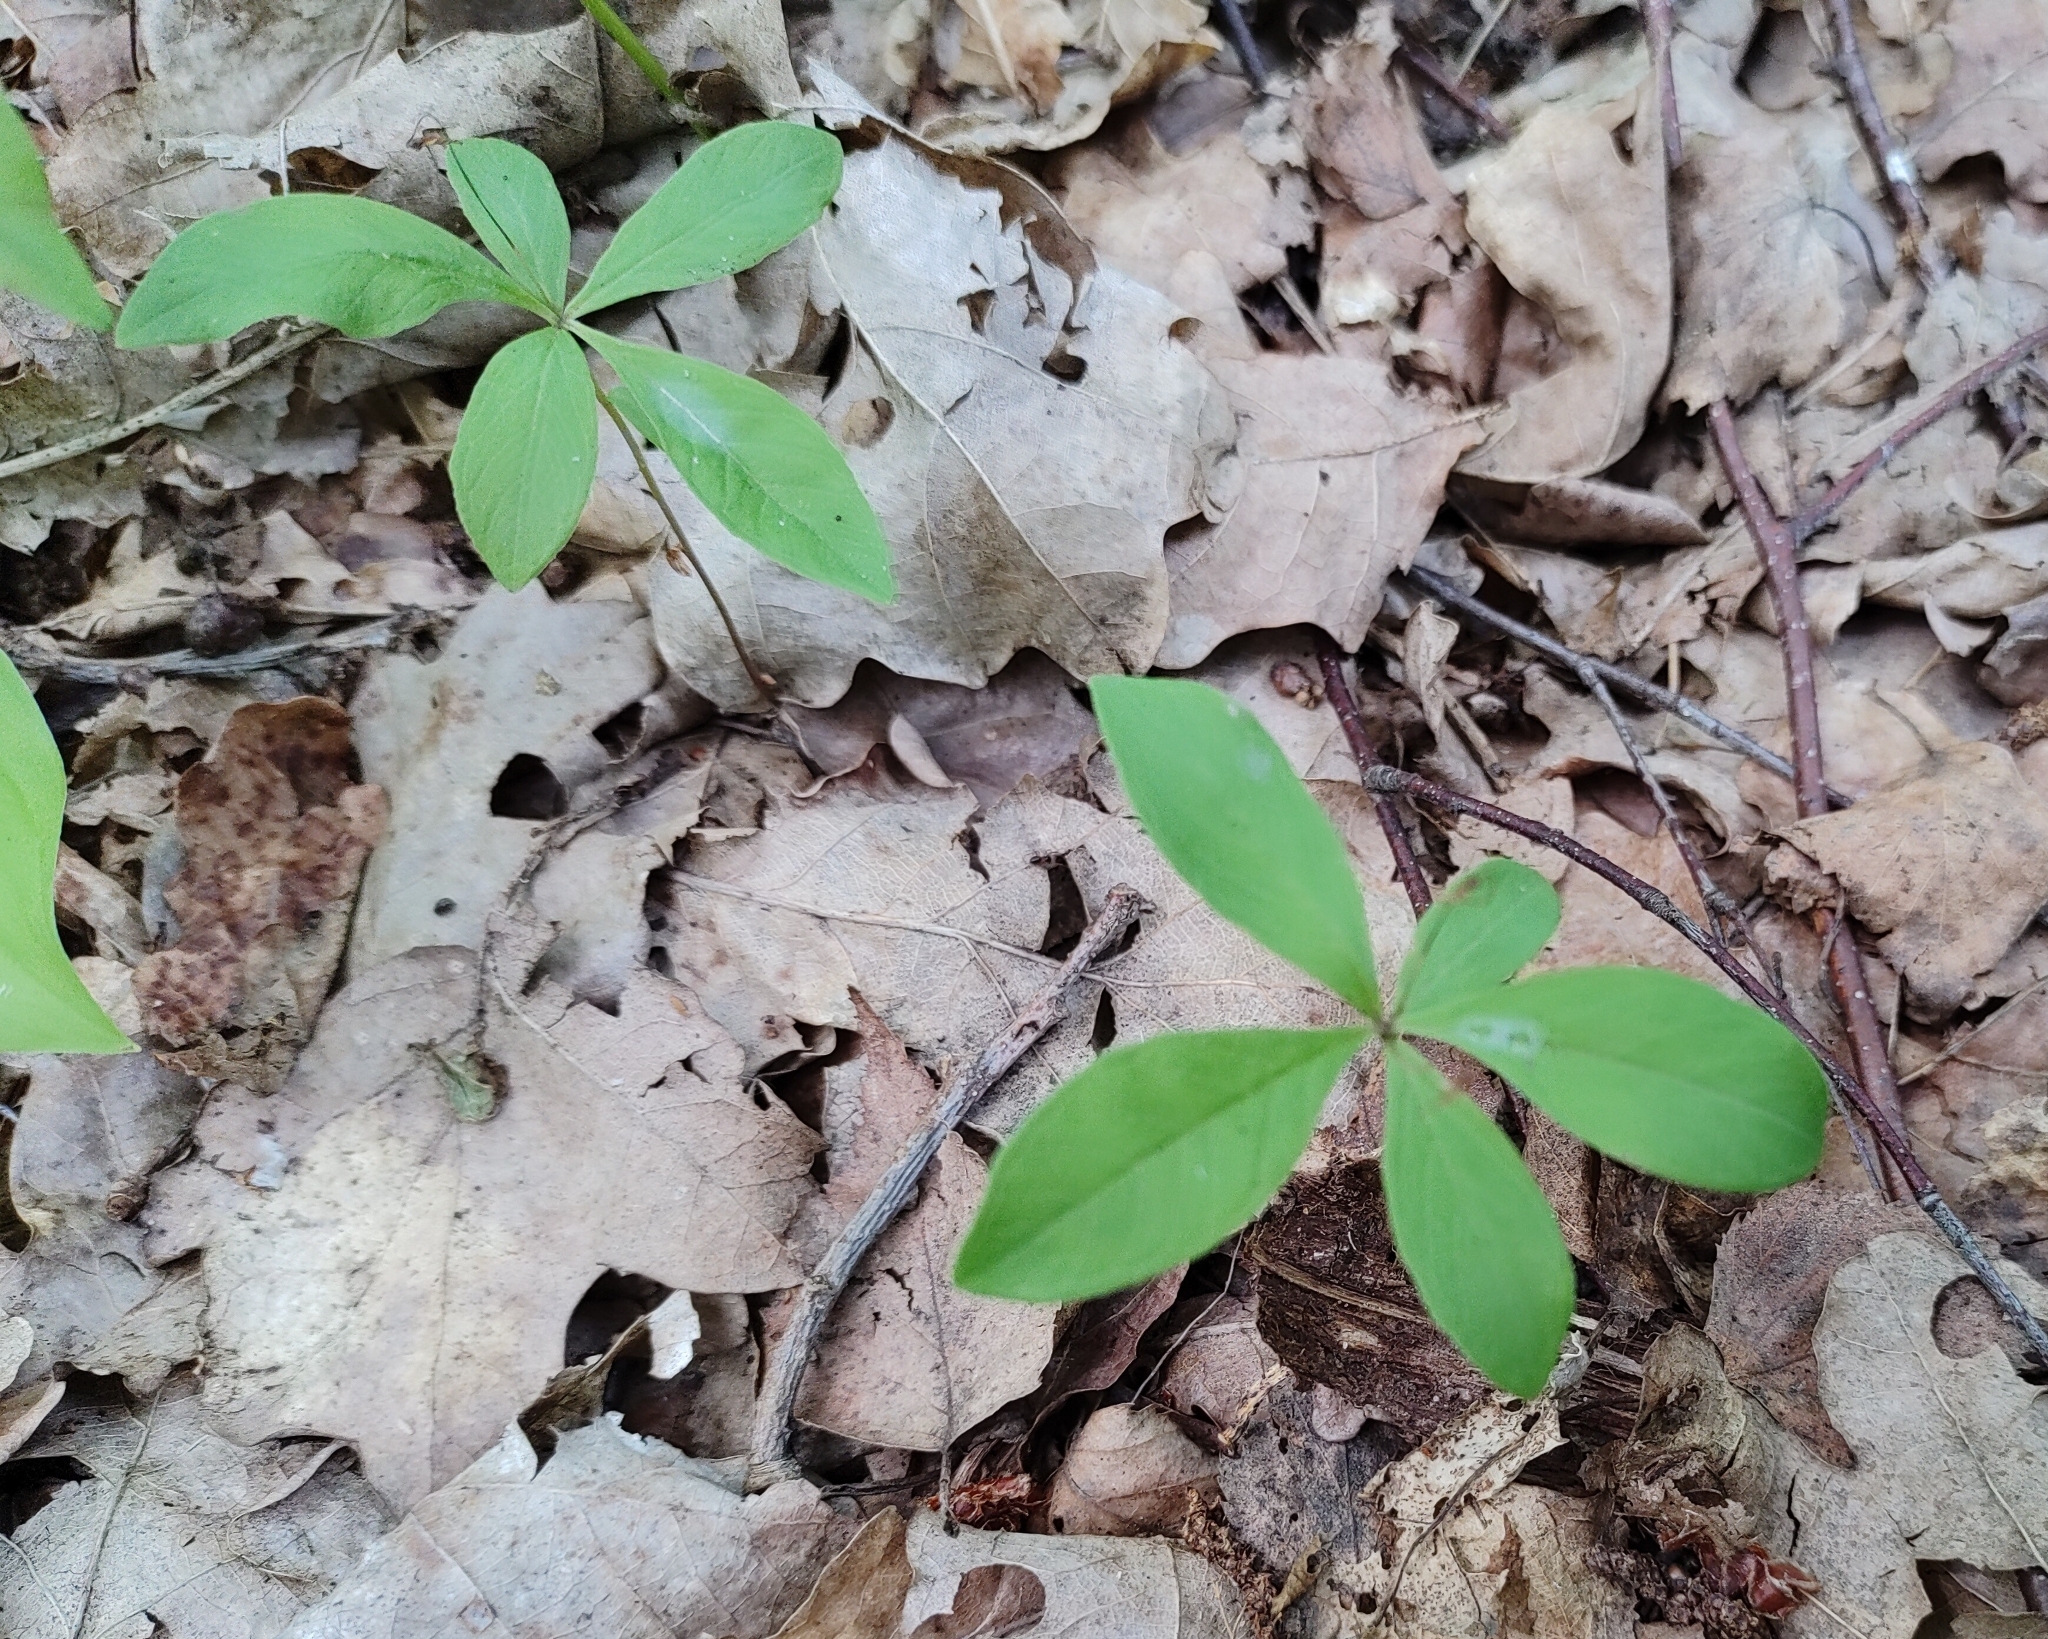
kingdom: Plantae
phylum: Tracheophyta
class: Magnoliopsida
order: Ericales
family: Primulaceae
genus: Lysimachia
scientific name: Lysimachia europaea
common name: Arctic starflower
